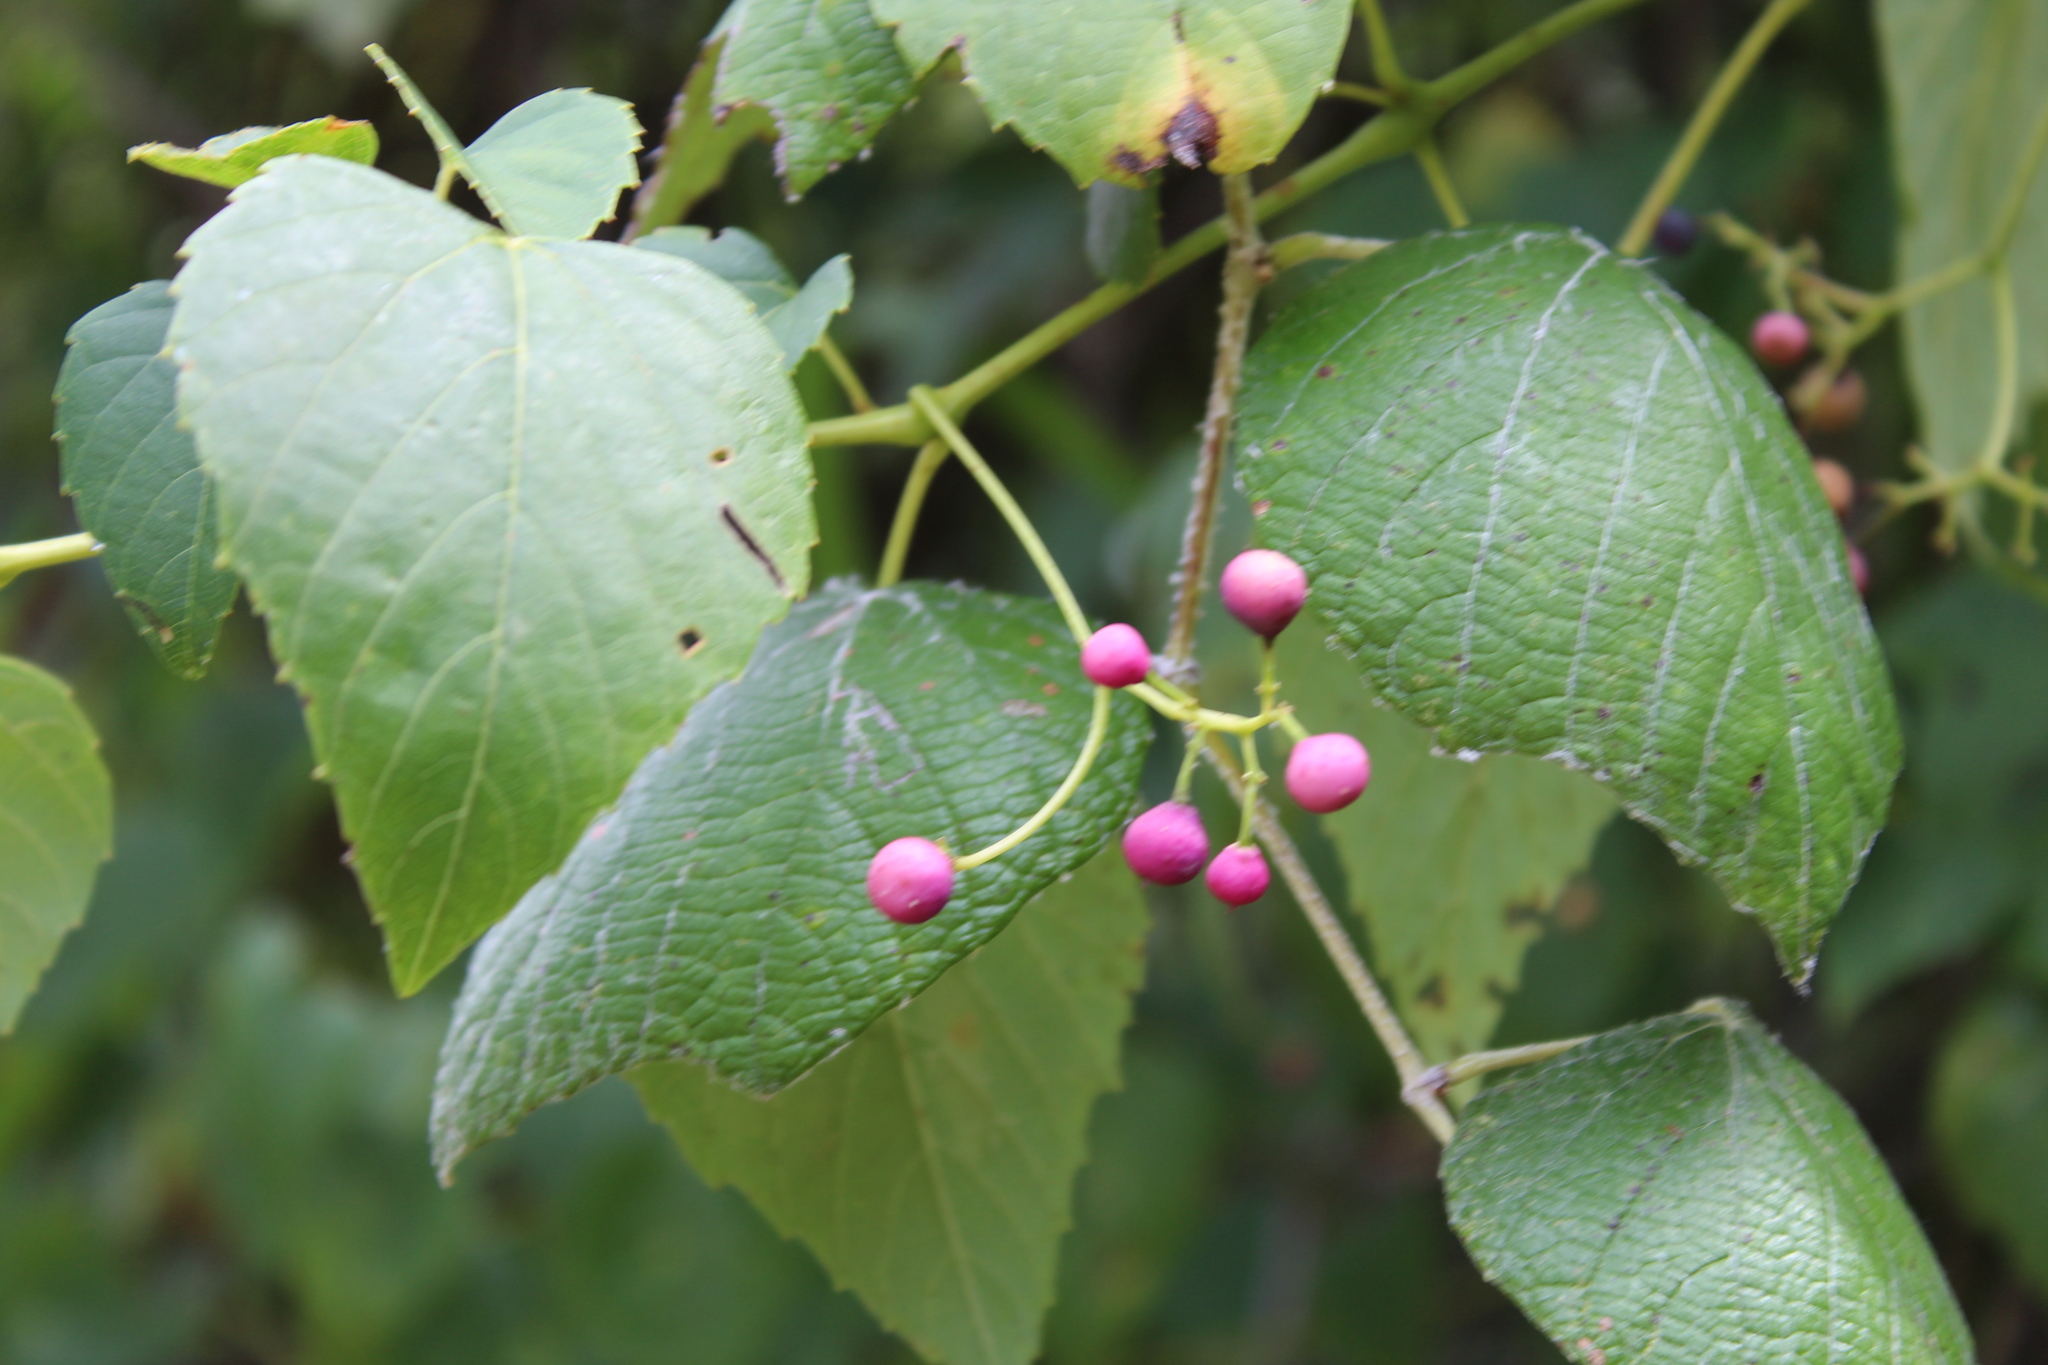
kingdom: Plantae
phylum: Tracheophyta
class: Magnoliopsida
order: Vitales
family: Vitaceae
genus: Ampelopsis
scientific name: Ampelopsis cordata
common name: Heart-leaf ampelopsis
